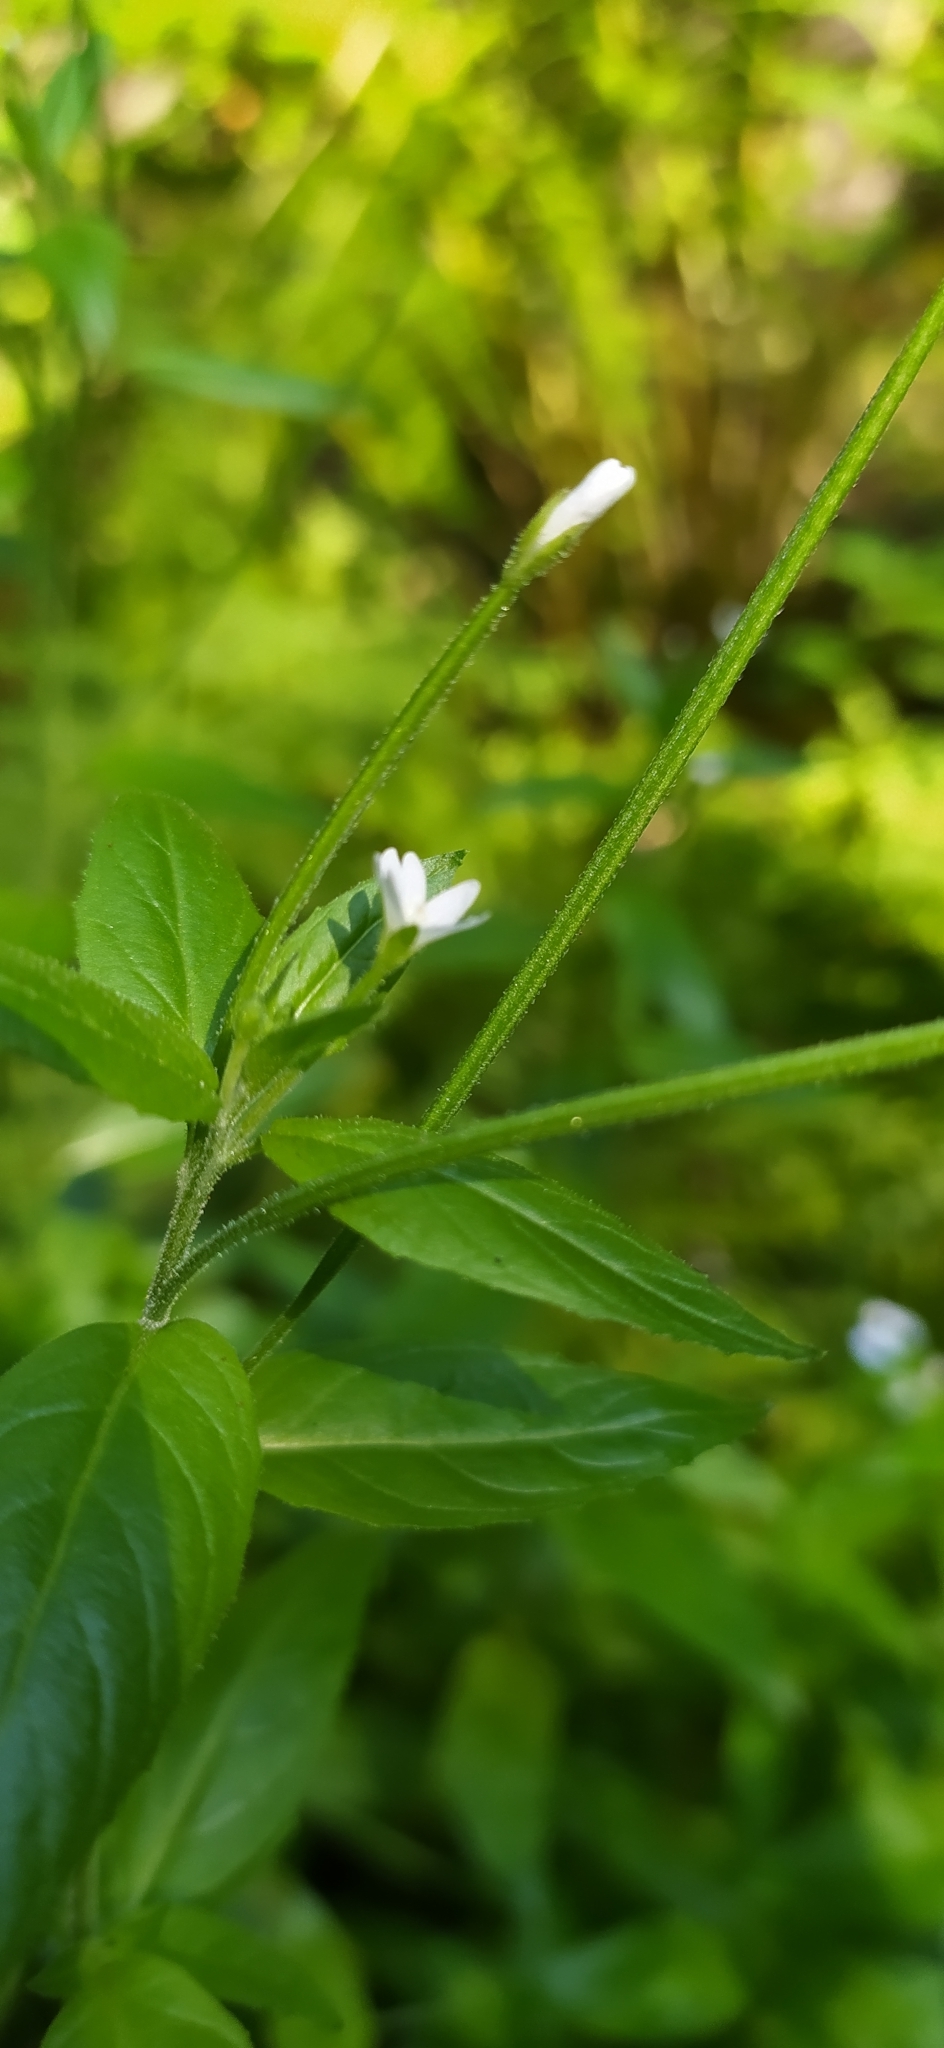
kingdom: Plantae
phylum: Tracheophyta
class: Magnoliopsida
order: Myrtales
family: Onagraceae
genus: Epilobium
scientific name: Epilobium pseudorubescens
